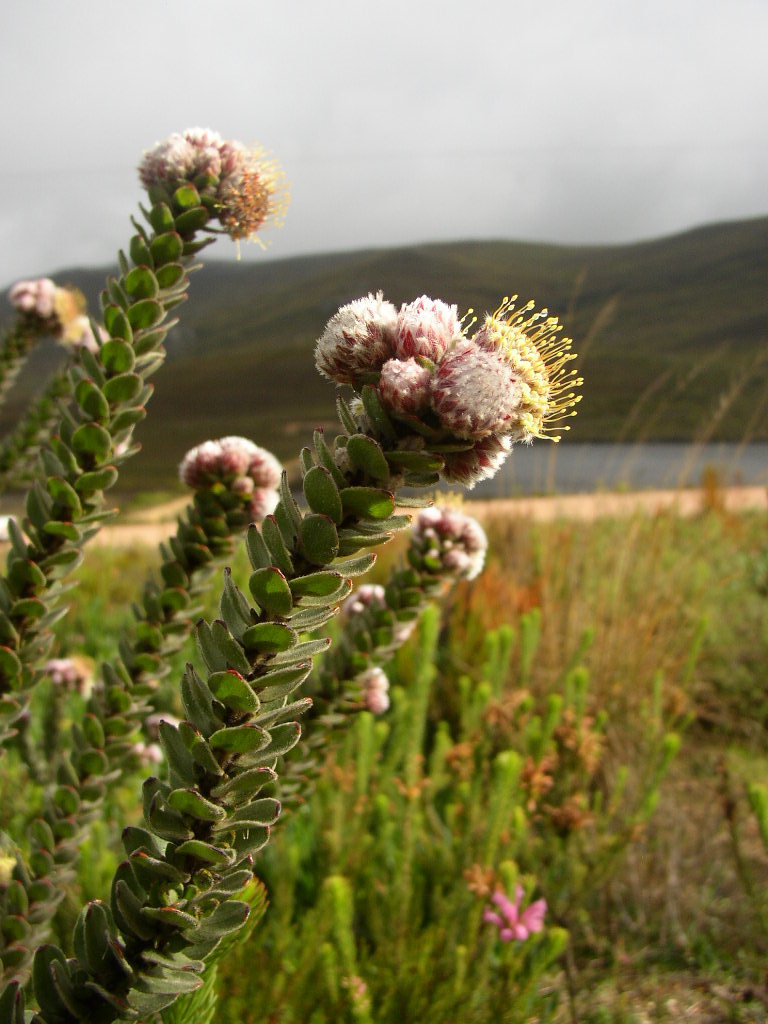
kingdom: Plantae
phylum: Tracheophyta
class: Magnoliopsida
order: Proteales
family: Proteaceae
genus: Leucospermum
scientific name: Leucospermum truncatulum
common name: Oval-leaf pincushion
